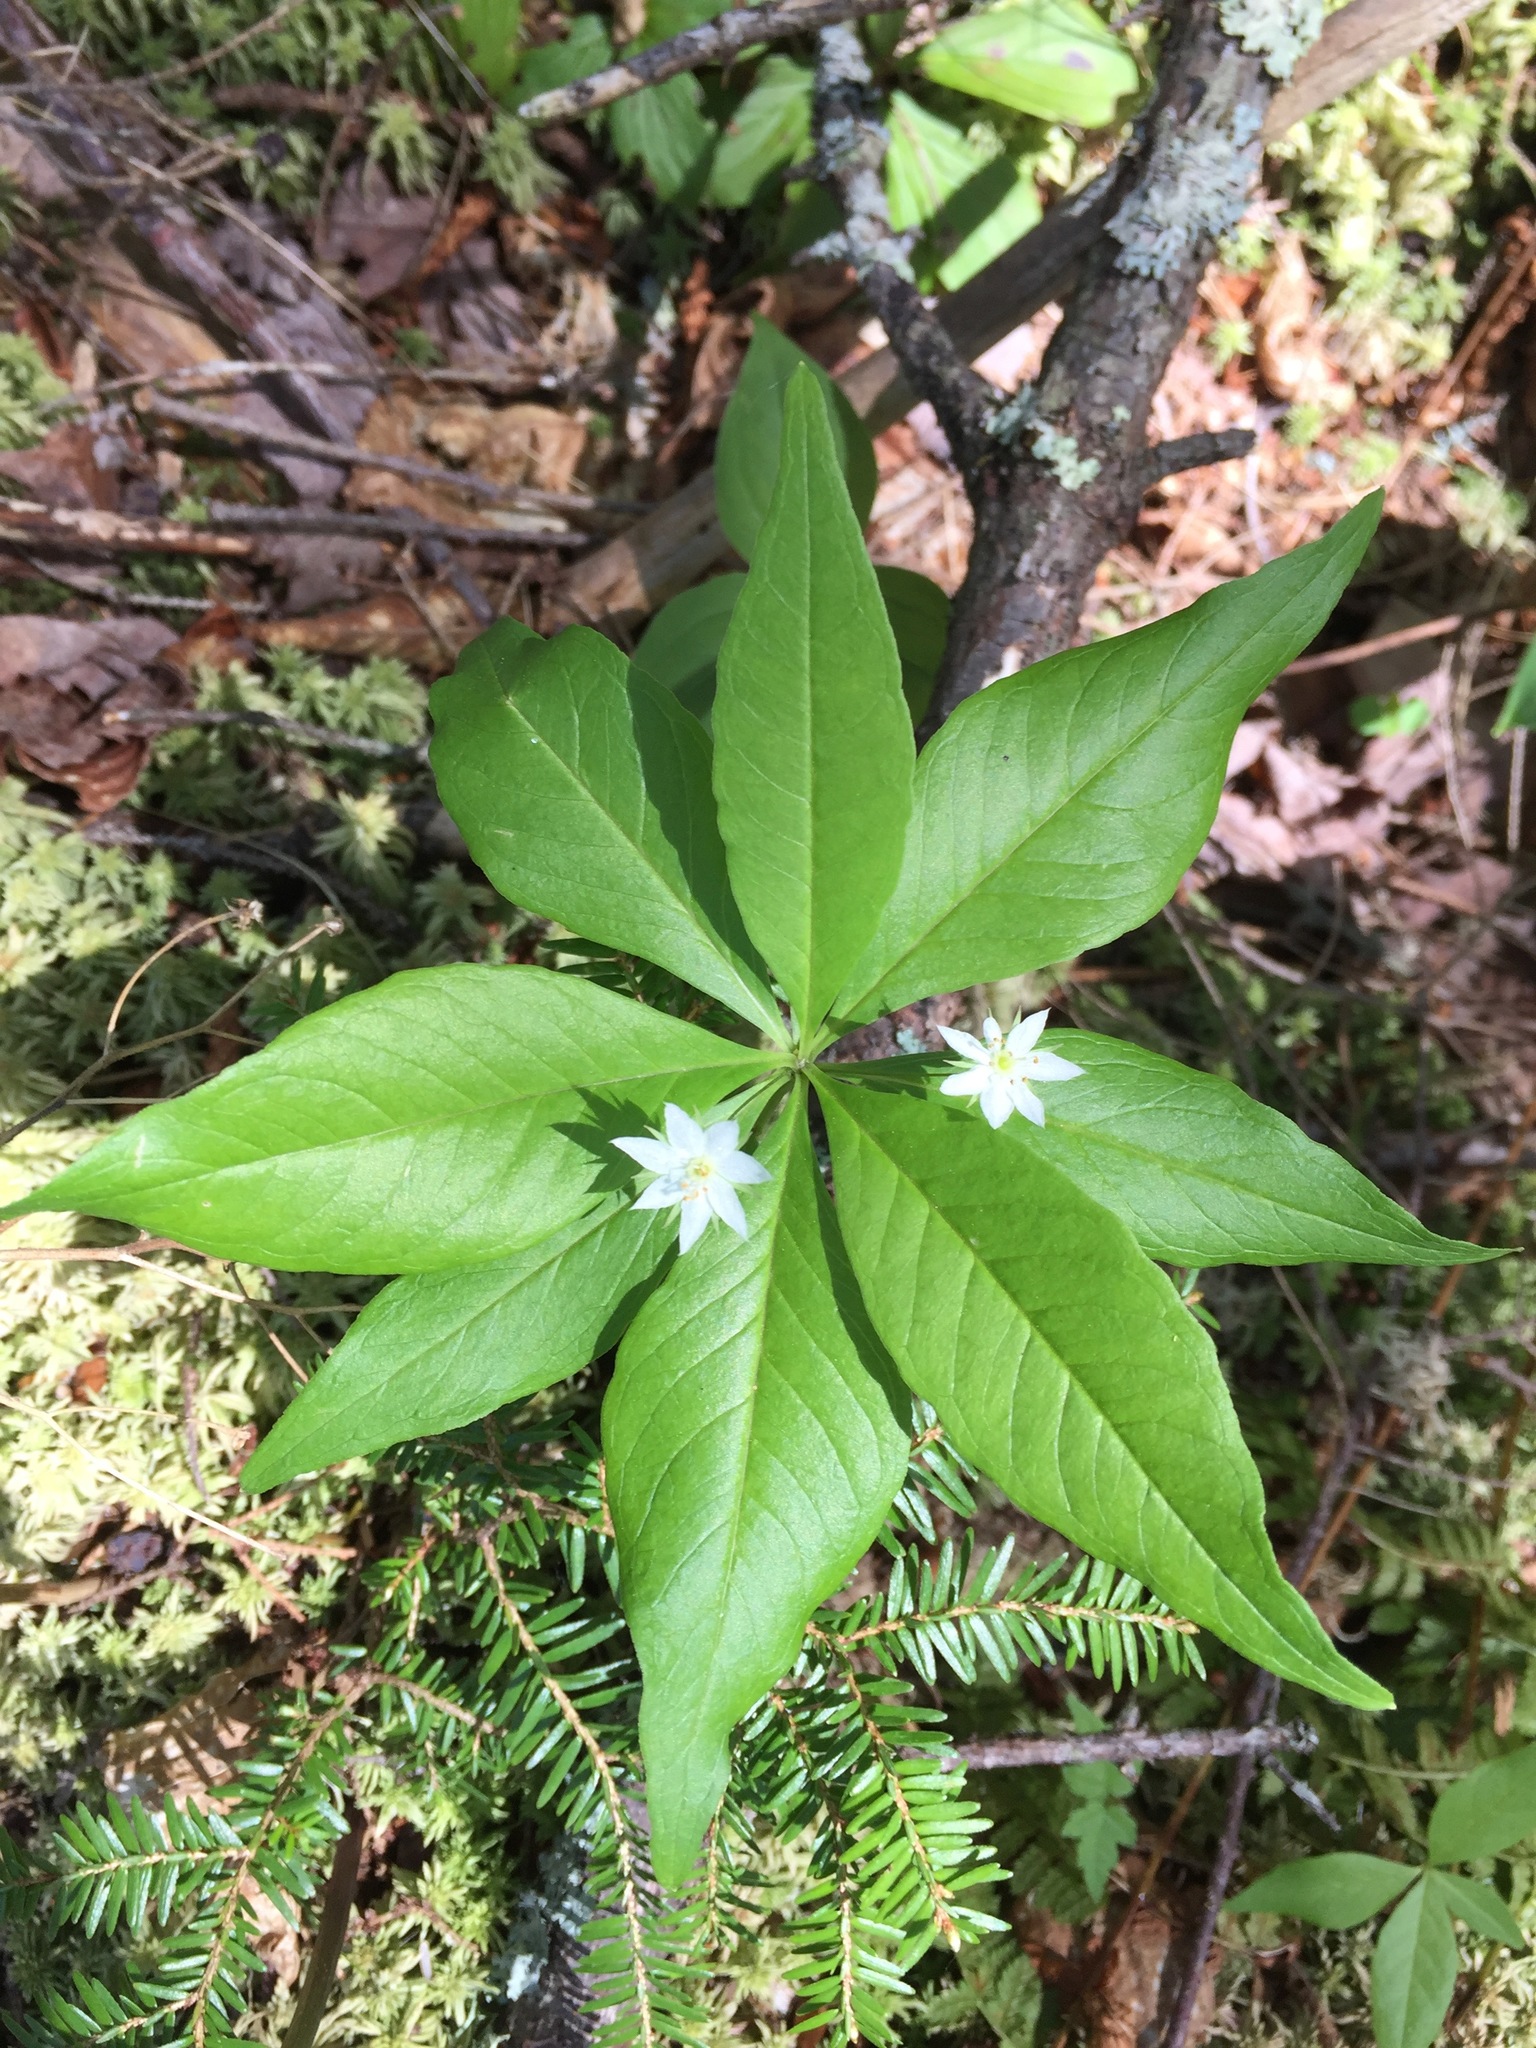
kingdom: Plantae
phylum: Tracheophyta
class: Magnoliopsida
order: Ericales
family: Primulaceae
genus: Lysimachia
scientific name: Lysimachia borealis
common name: American starflower
